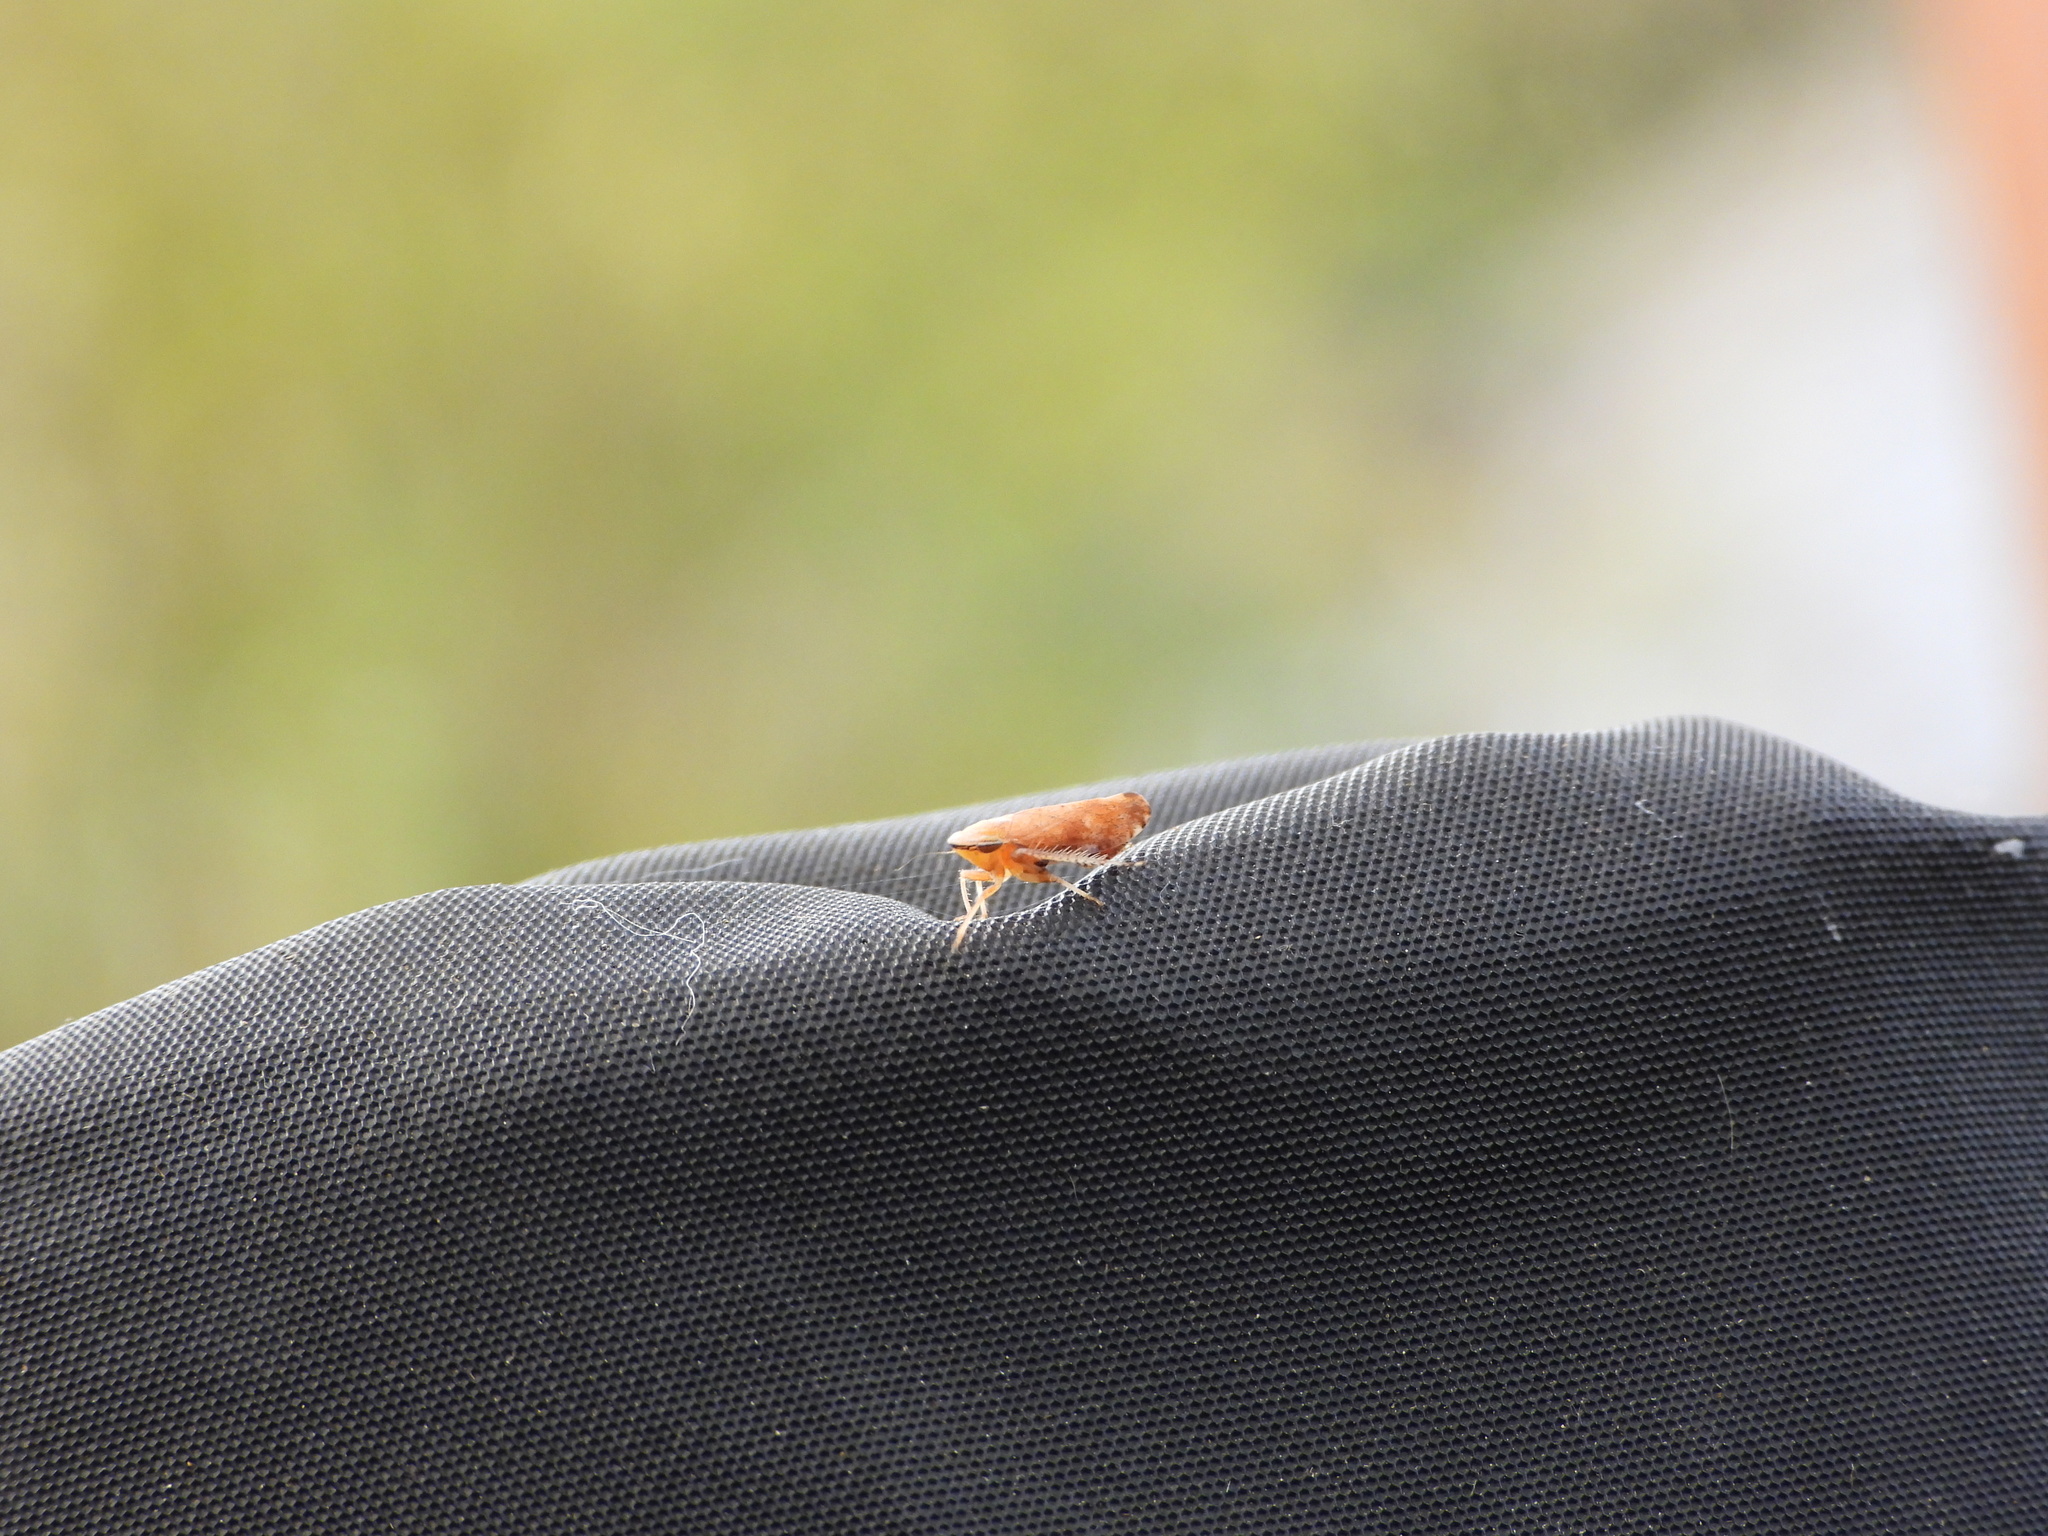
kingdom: Animalia
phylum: Arthropoda
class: Insecta
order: Hemiptera
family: Cicadellidae
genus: Fieberiella
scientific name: Fieberiella florii
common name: Flor’s leafhopper
